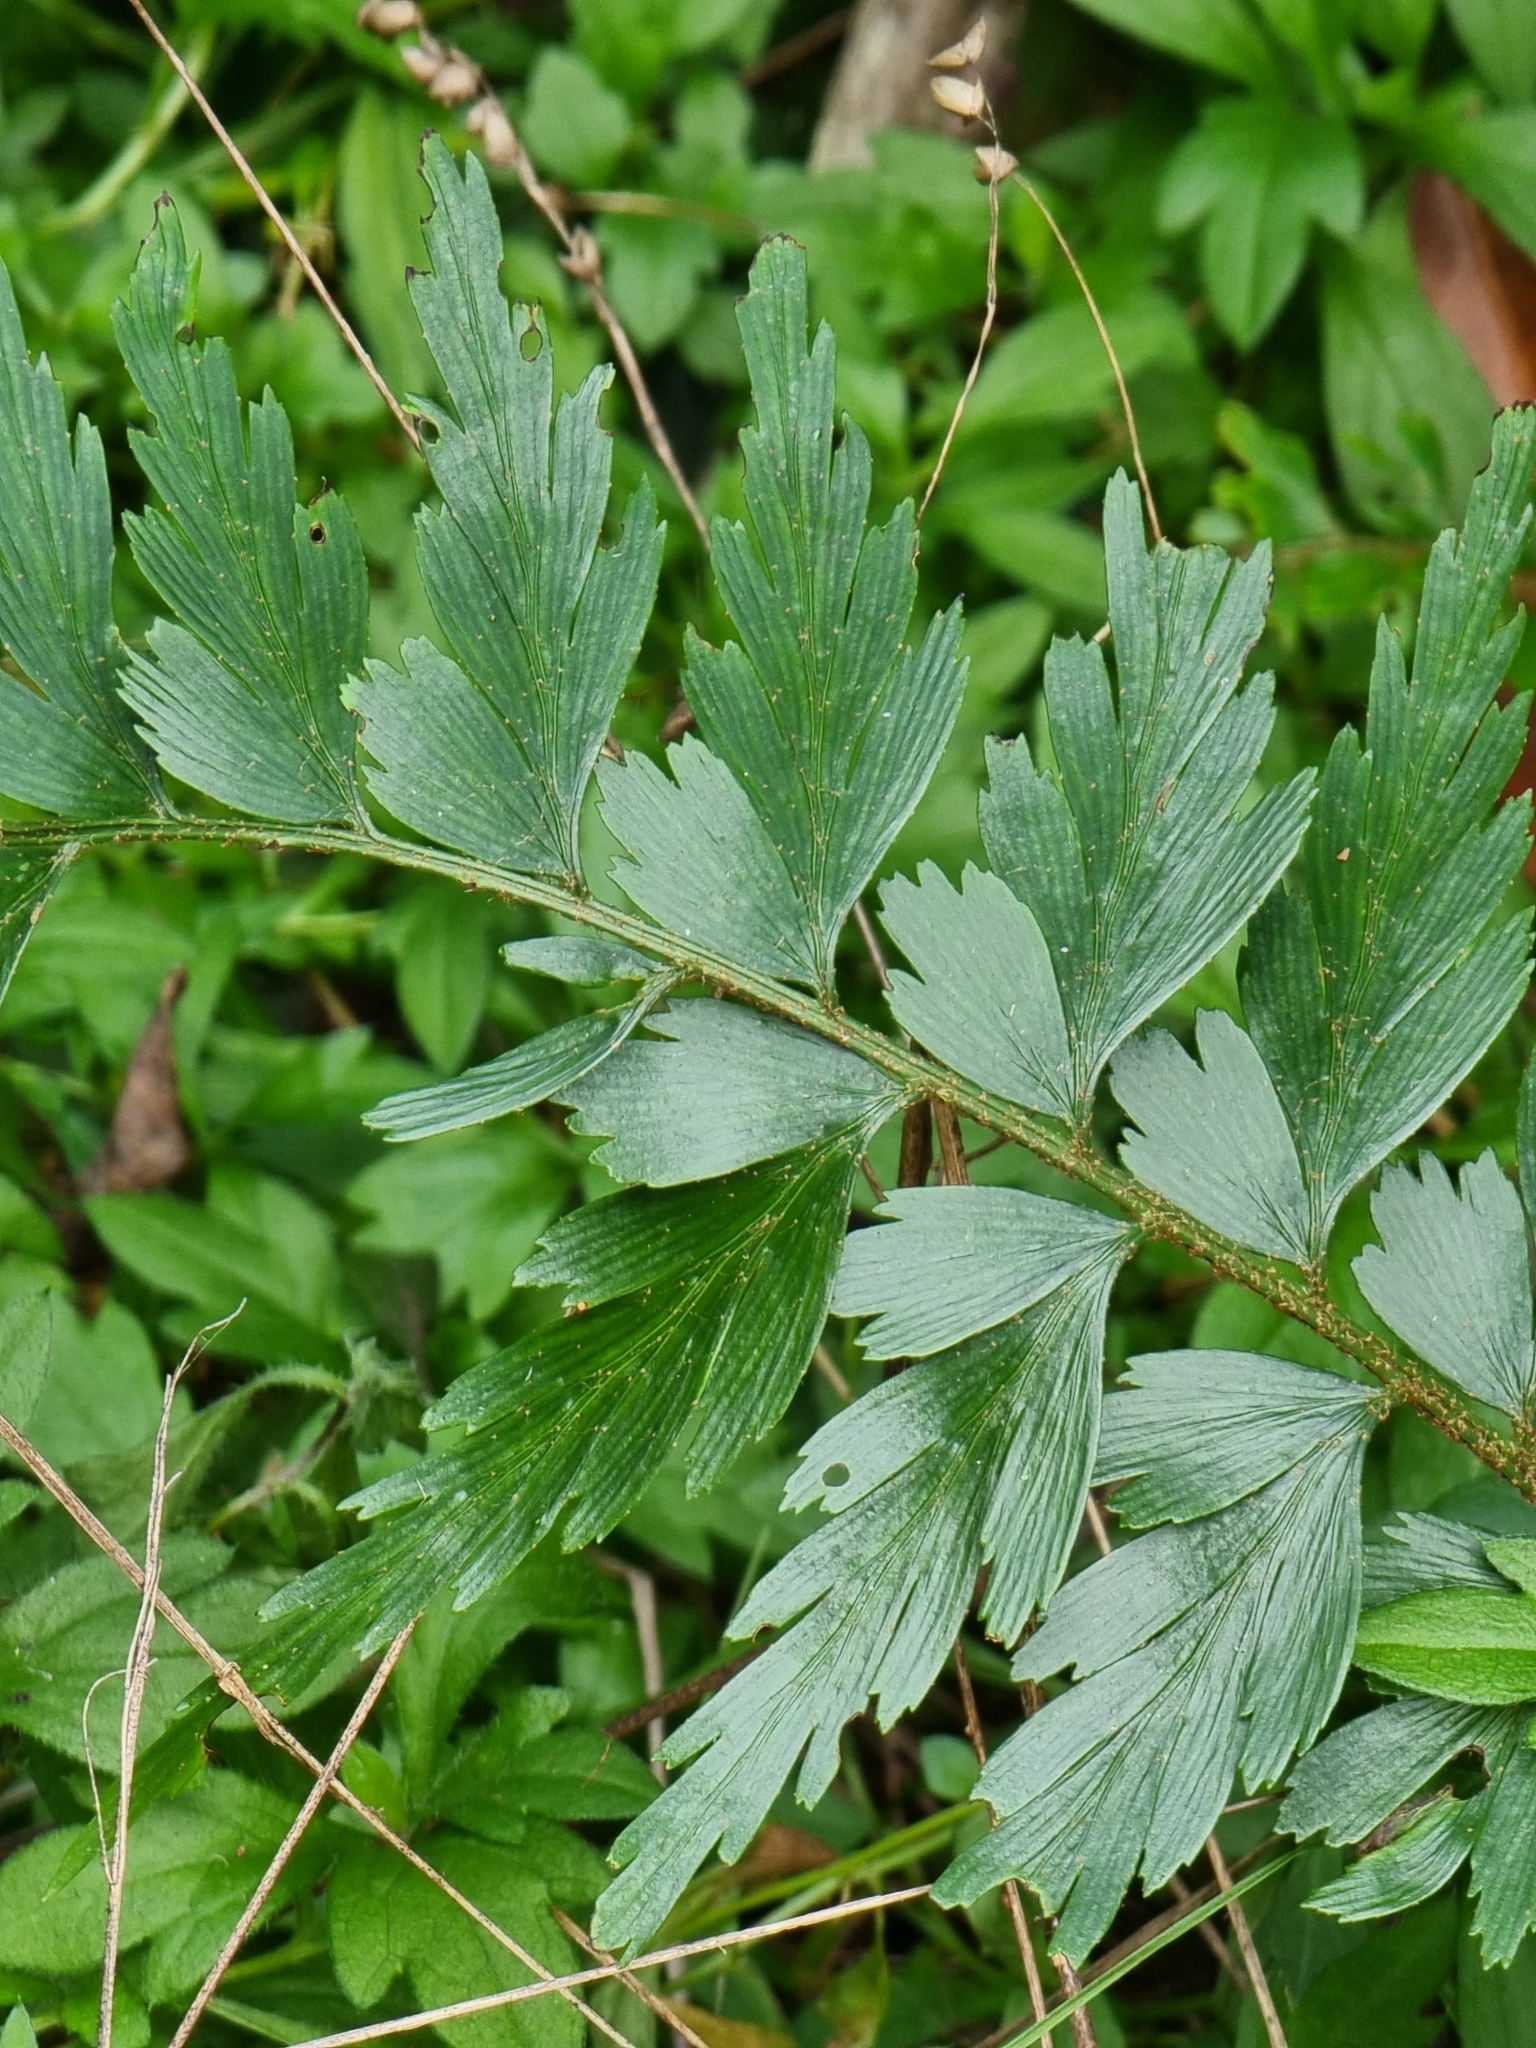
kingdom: Plantae
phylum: Tracheophyta
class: Polypodiopsida
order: Polypodiales
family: Aspleniaceae
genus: Asplenium
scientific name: Asplenium braithwaitei
